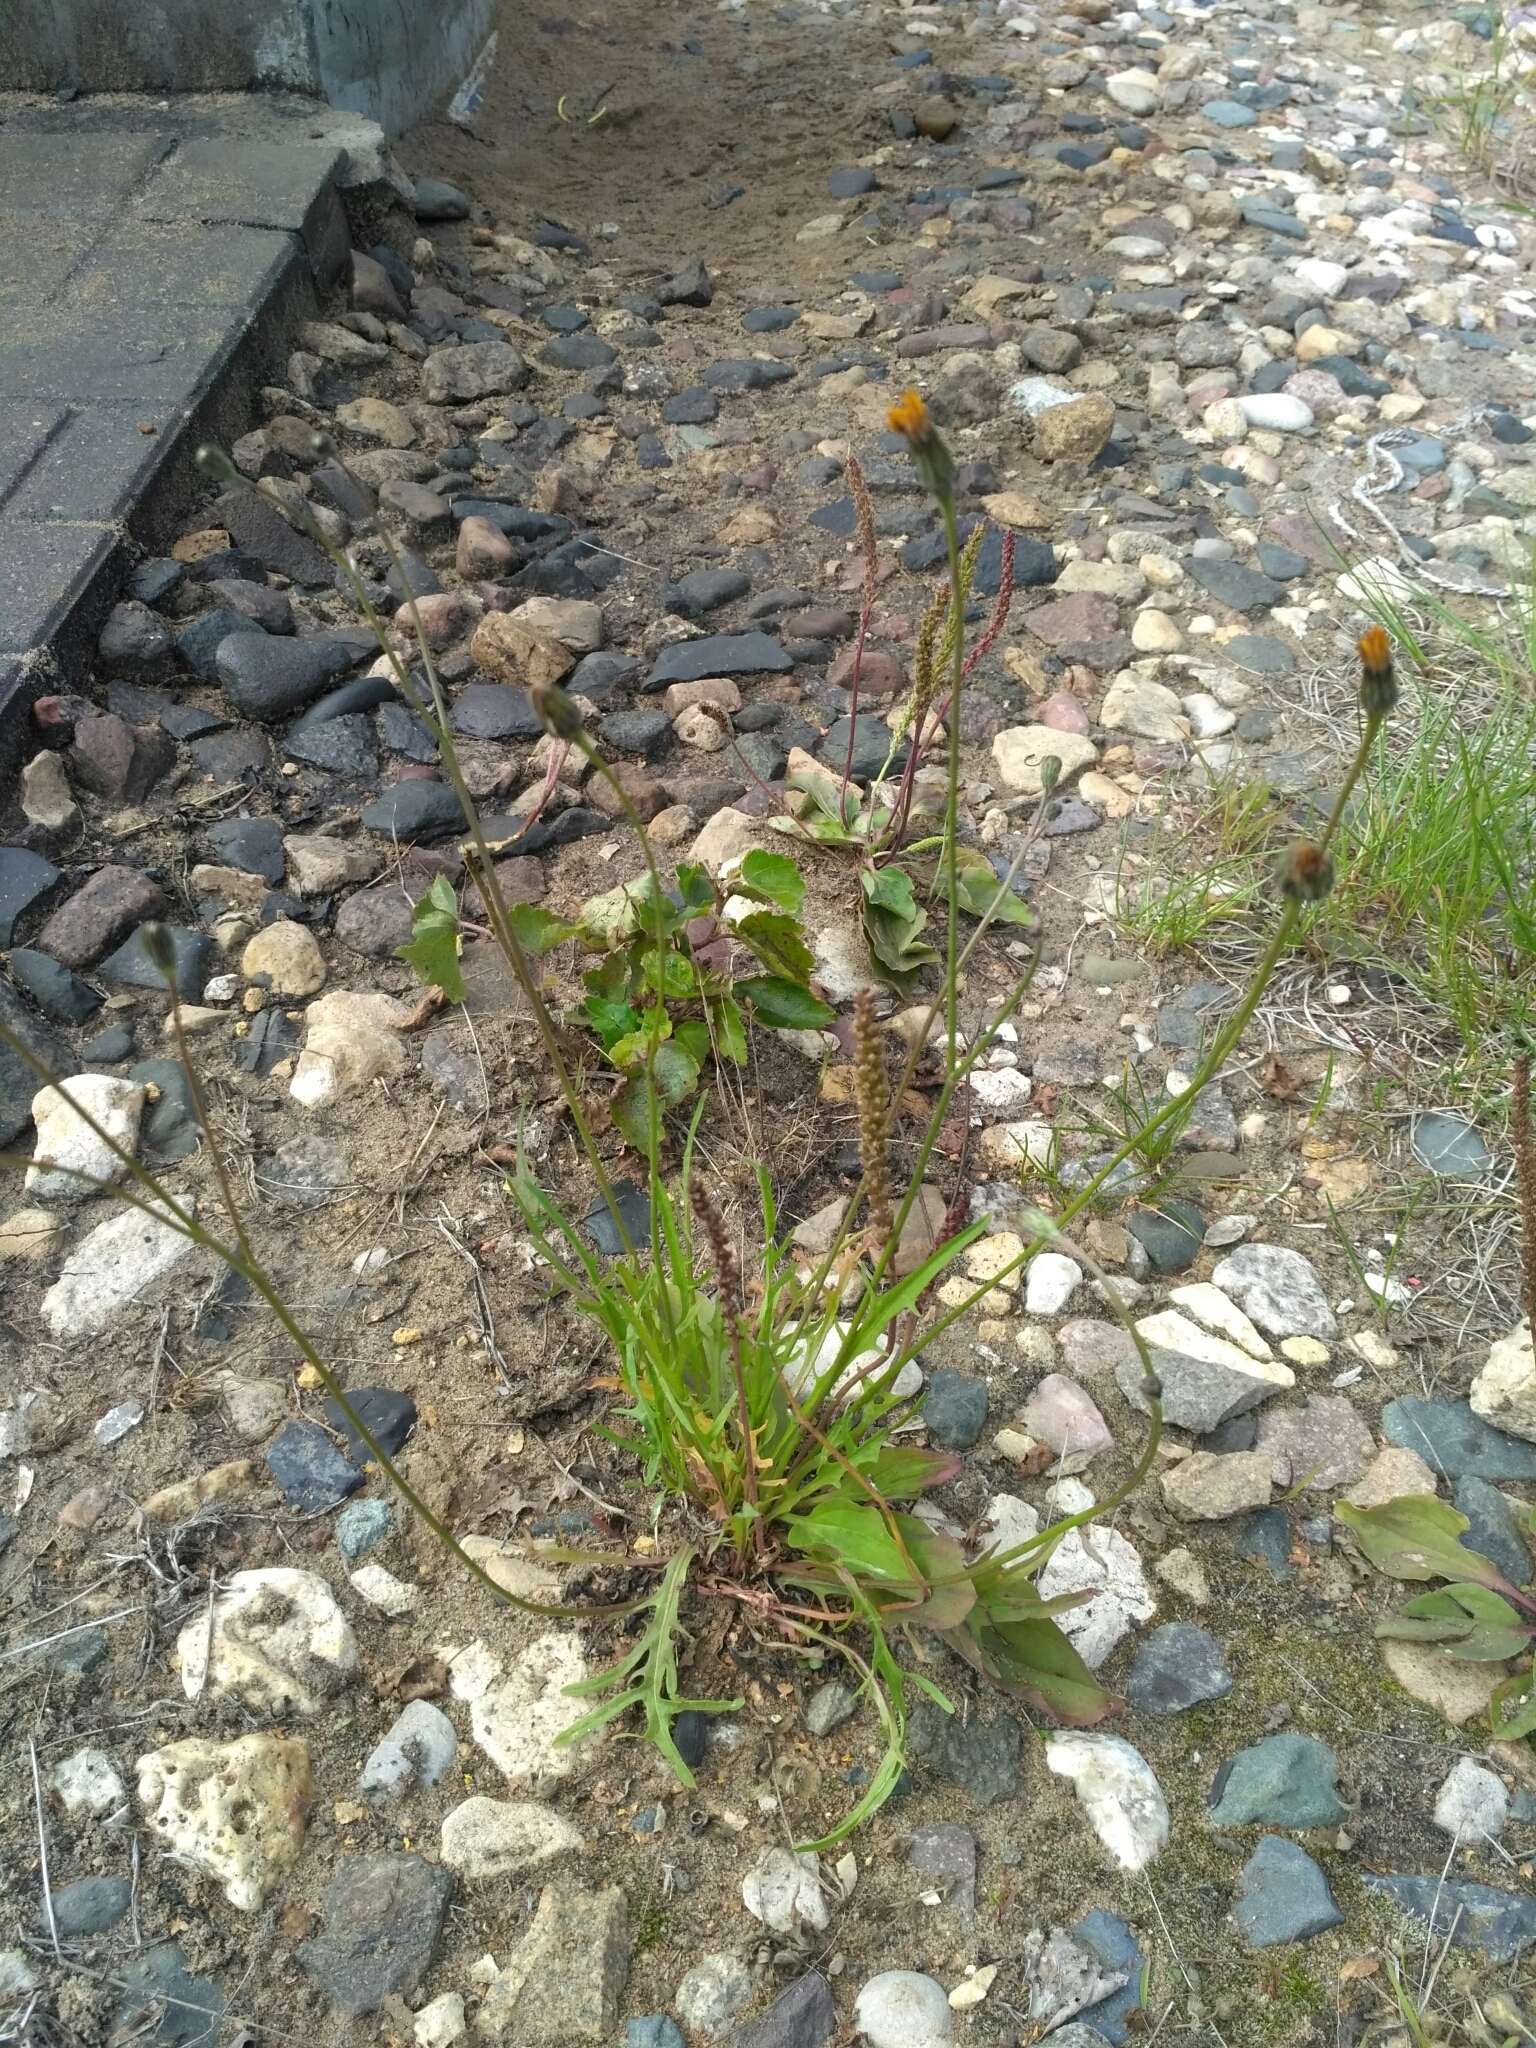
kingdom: Plantae
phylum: Tracheophyta
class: Magnoliopsida
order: Asterales
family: Asteraceae
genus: Scorzoneroides
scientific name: Scorzoneroides autumnalis
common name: Autumn hawkbit
